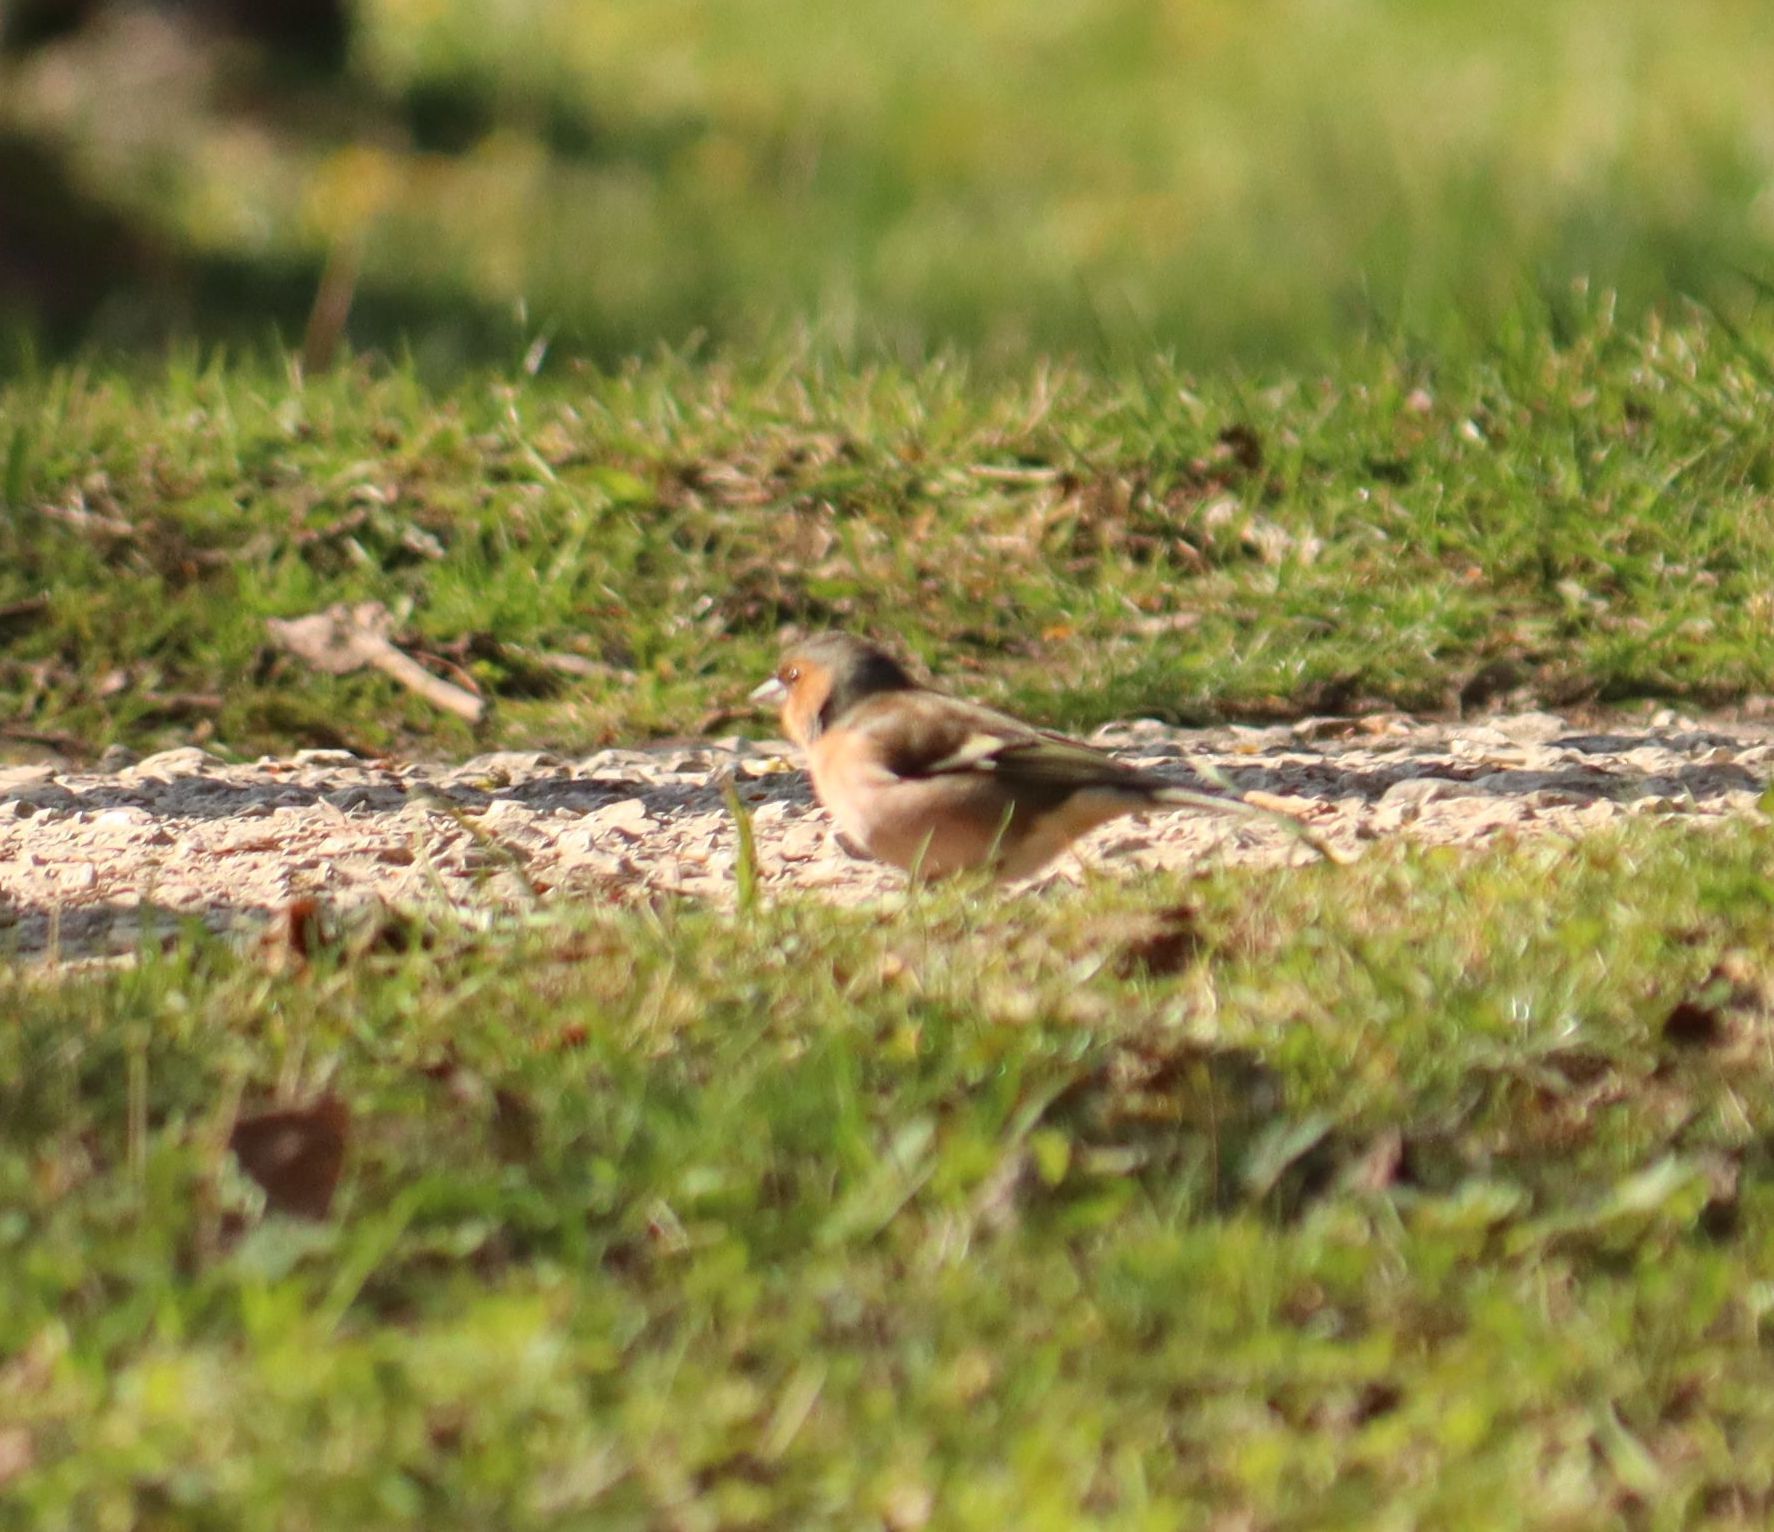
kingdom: Animalia
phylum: Chordata
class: Aves
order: Passeriformes
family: Fringillidae
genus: Fringilla
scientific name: Fringilla coelebs
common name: Common chaffinch
